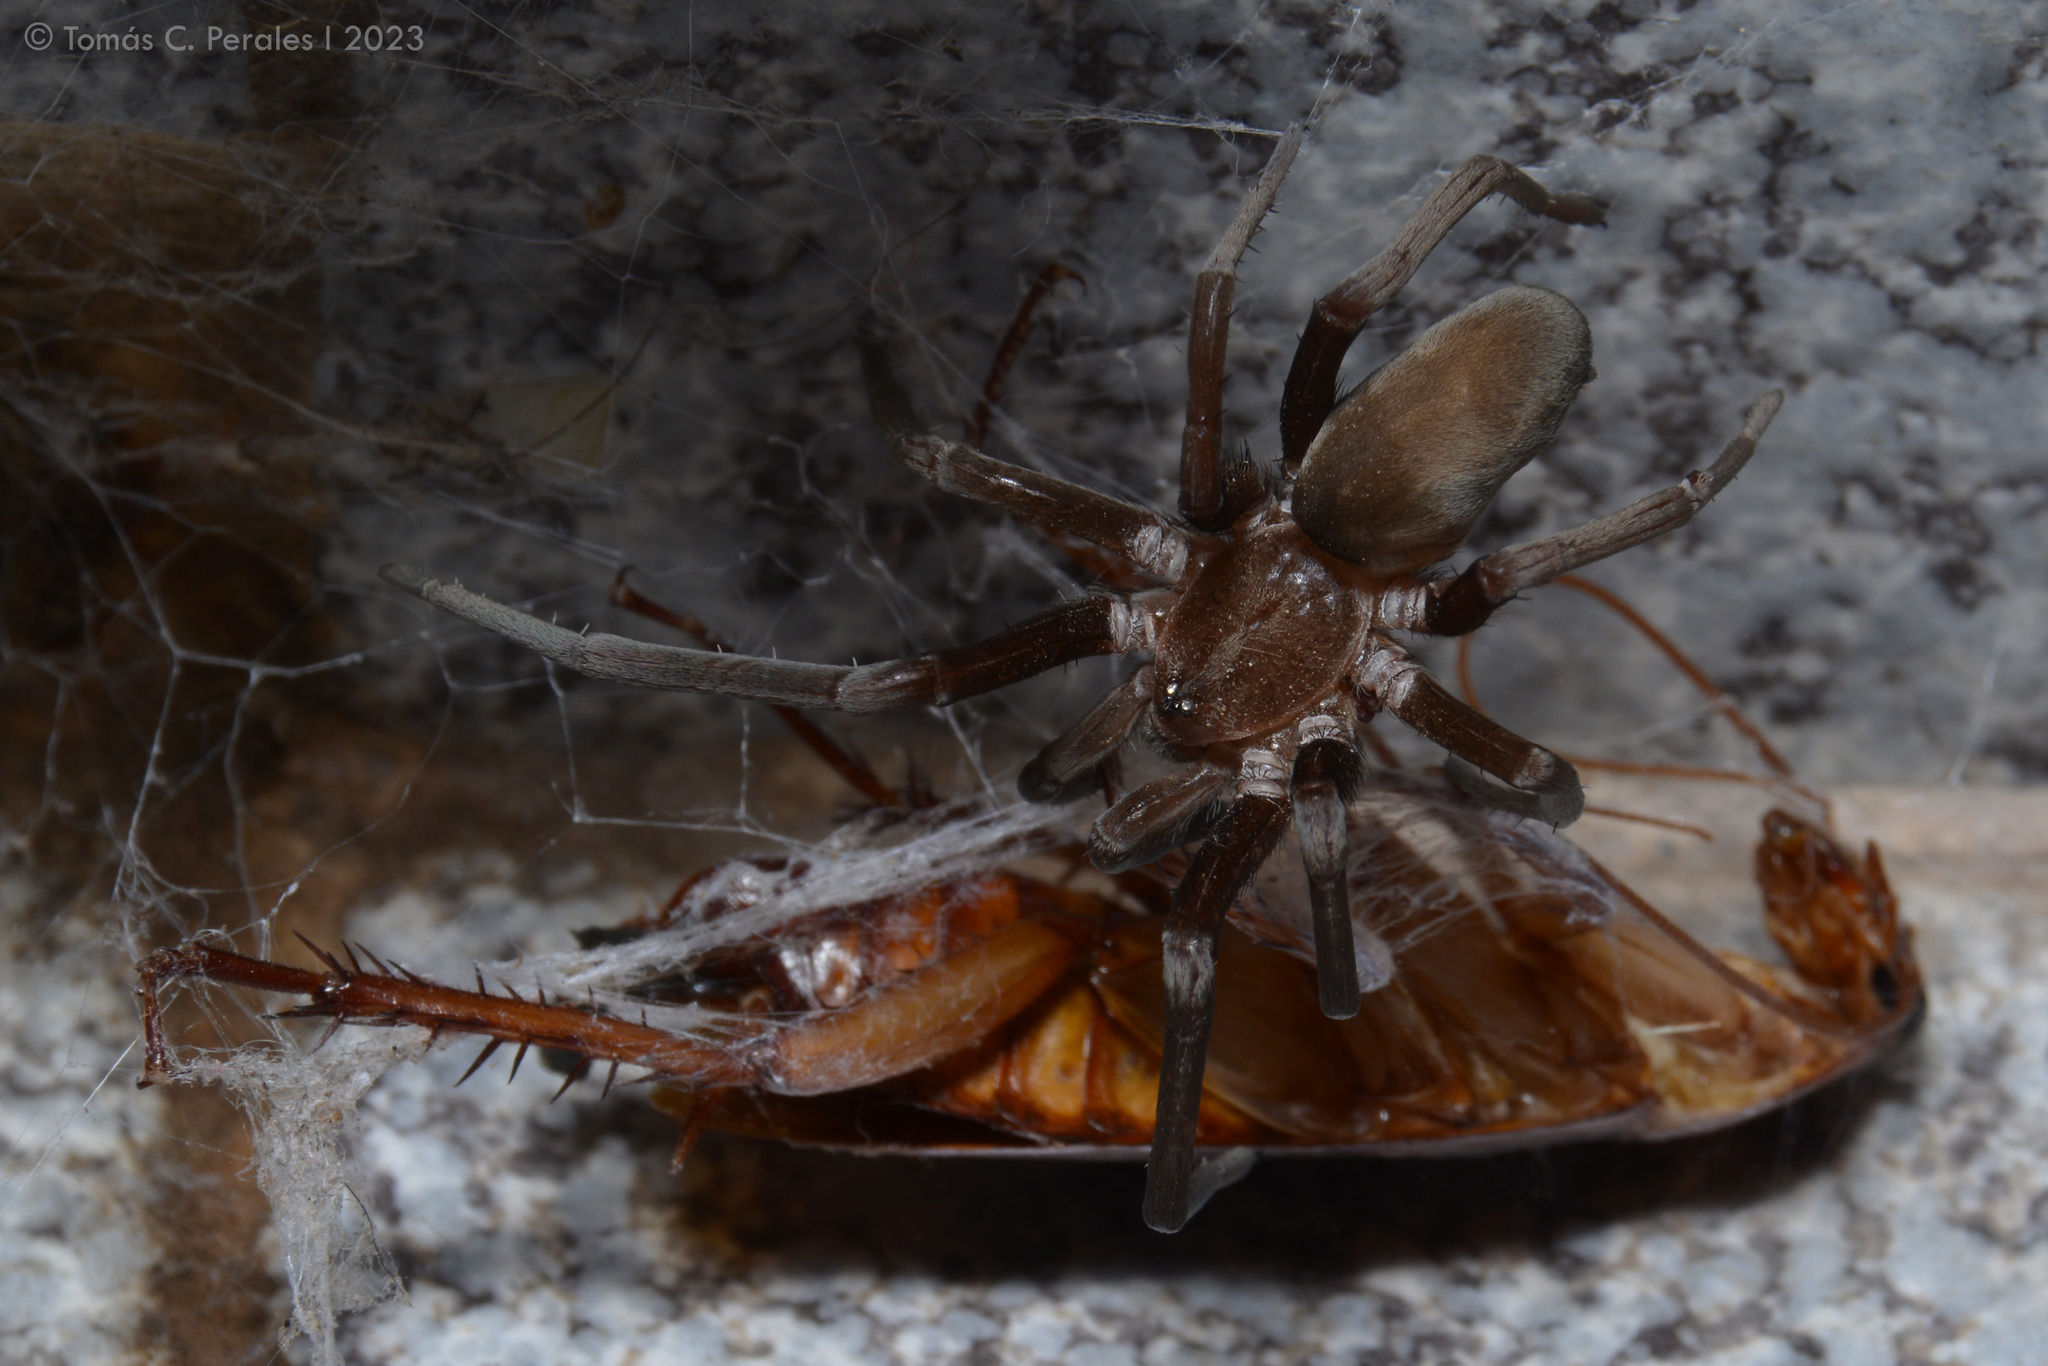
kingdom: Animalia
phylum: Arthropoda
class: Insecta
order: Blattodea
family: Blattidae
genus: Periplaneta
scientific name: Periplaneta americana
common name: American cockroach
